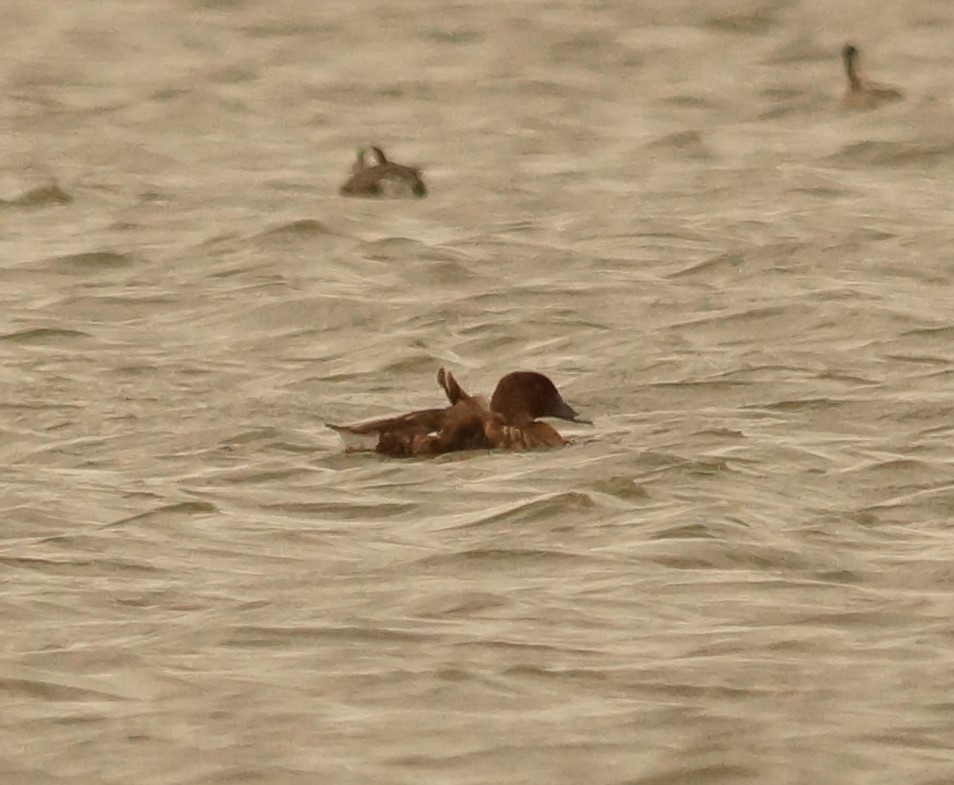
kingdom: Animalia
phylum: Chordata
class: Aves
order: Anseriformes
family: Anatidae
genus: Aythya
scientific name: Aythya australis
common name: Hardhead
